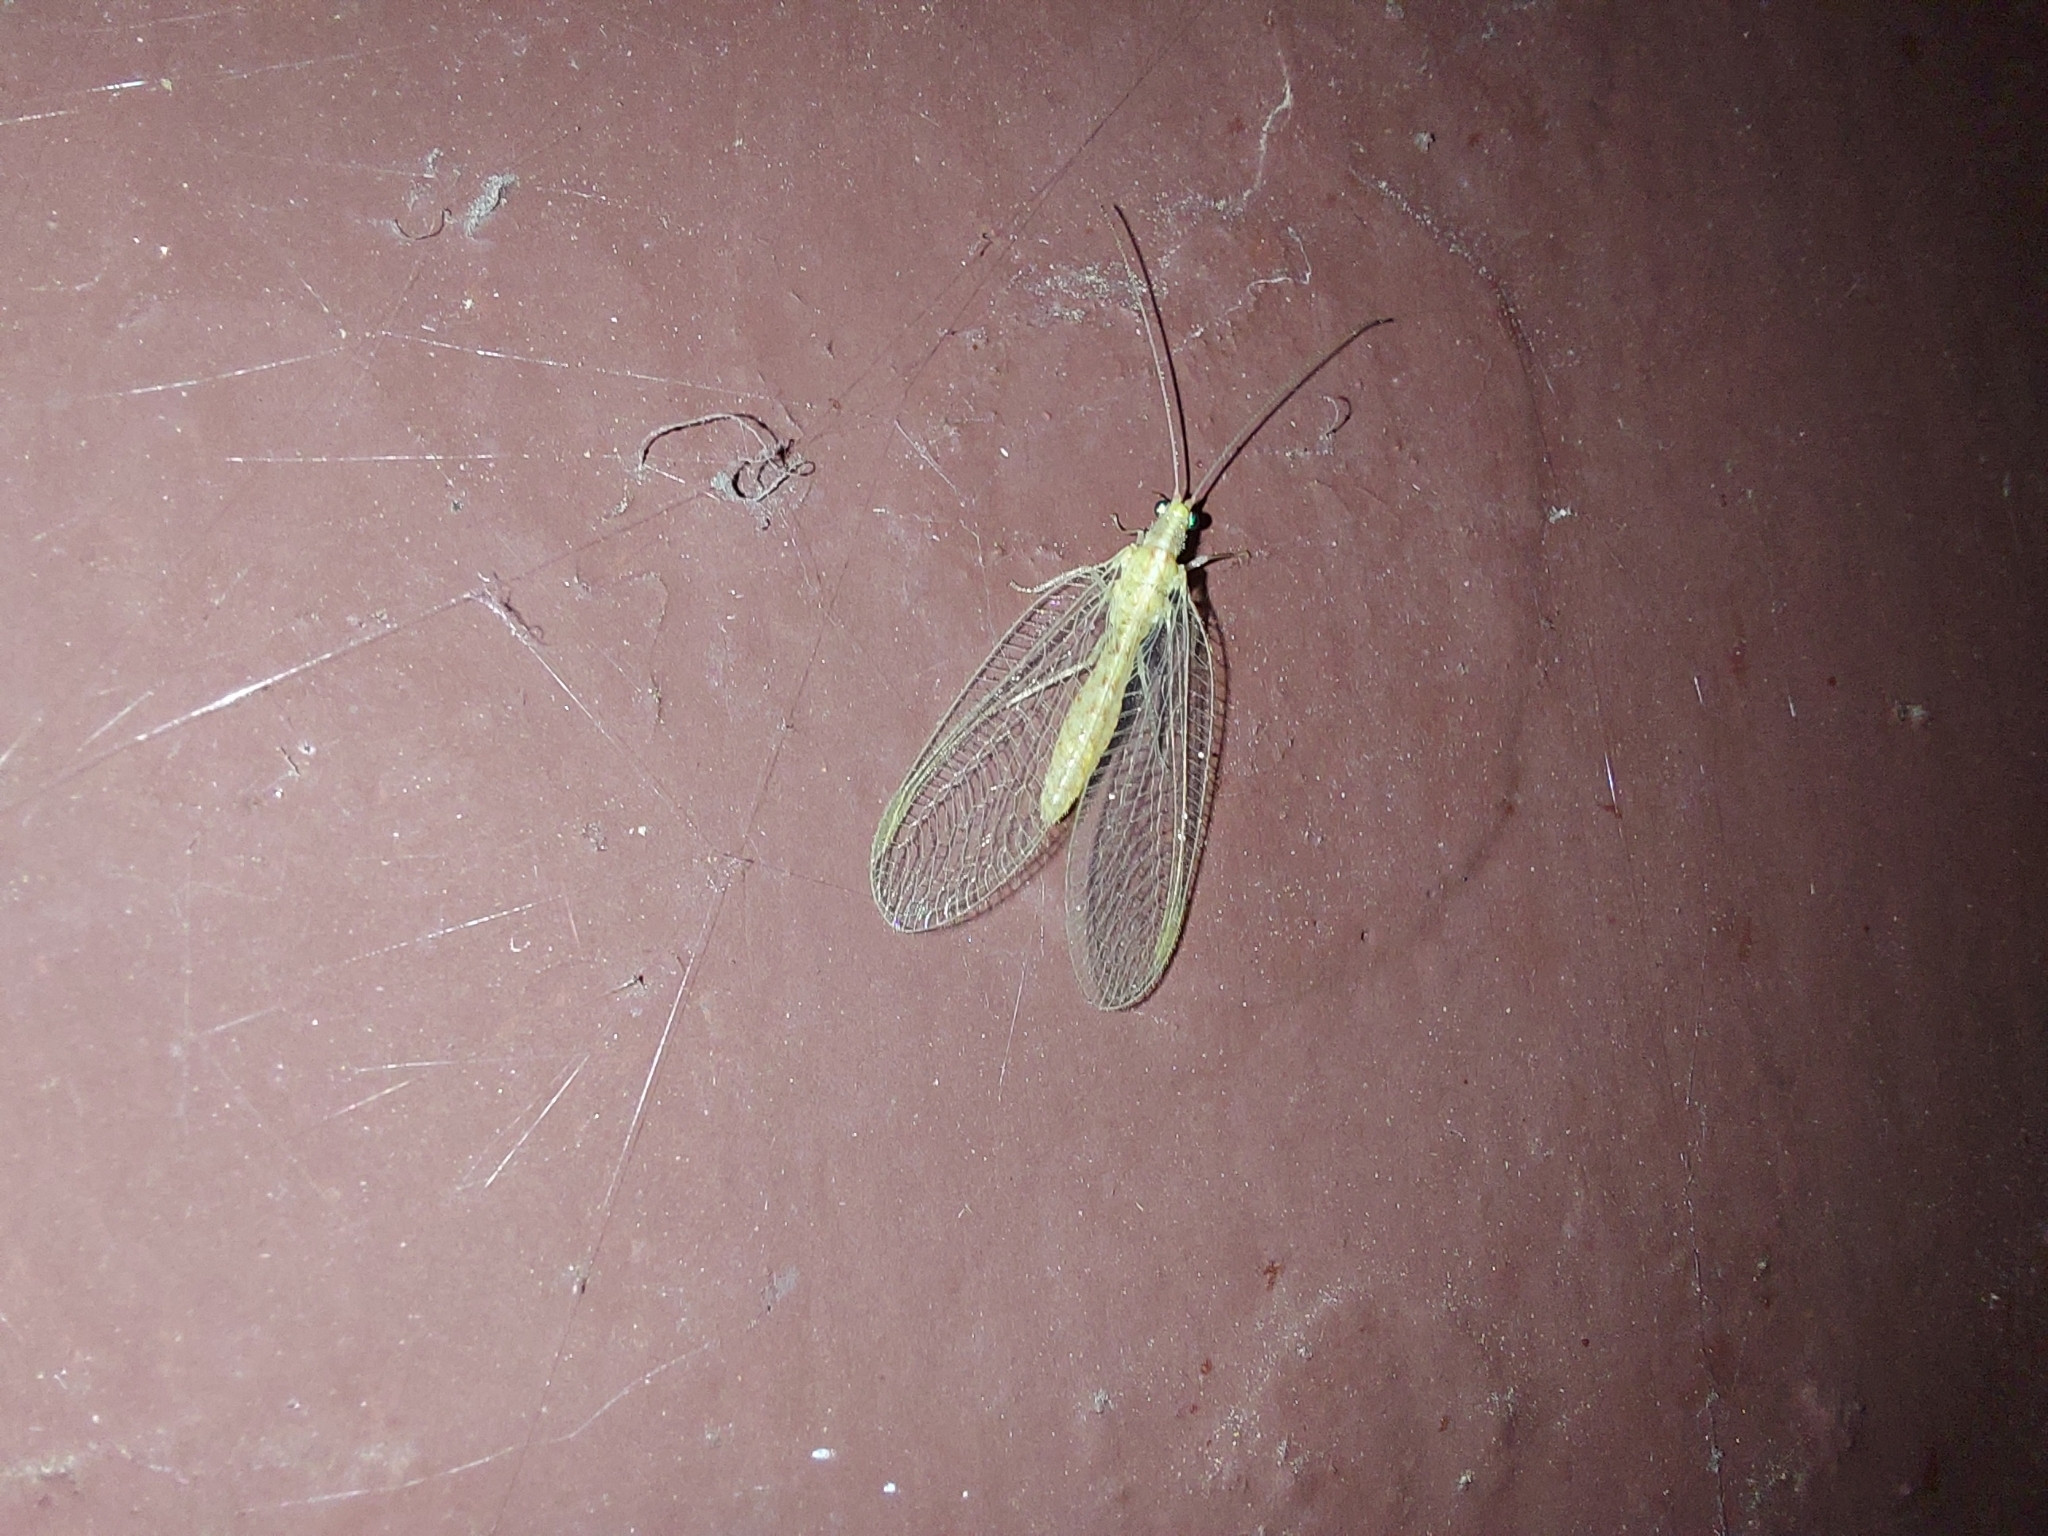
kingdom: Animalia
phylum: Arthropoda
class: Insecta
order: Neuroptera
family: Chrysopidae
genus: Chrysoperla
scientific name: Chrysoperla
